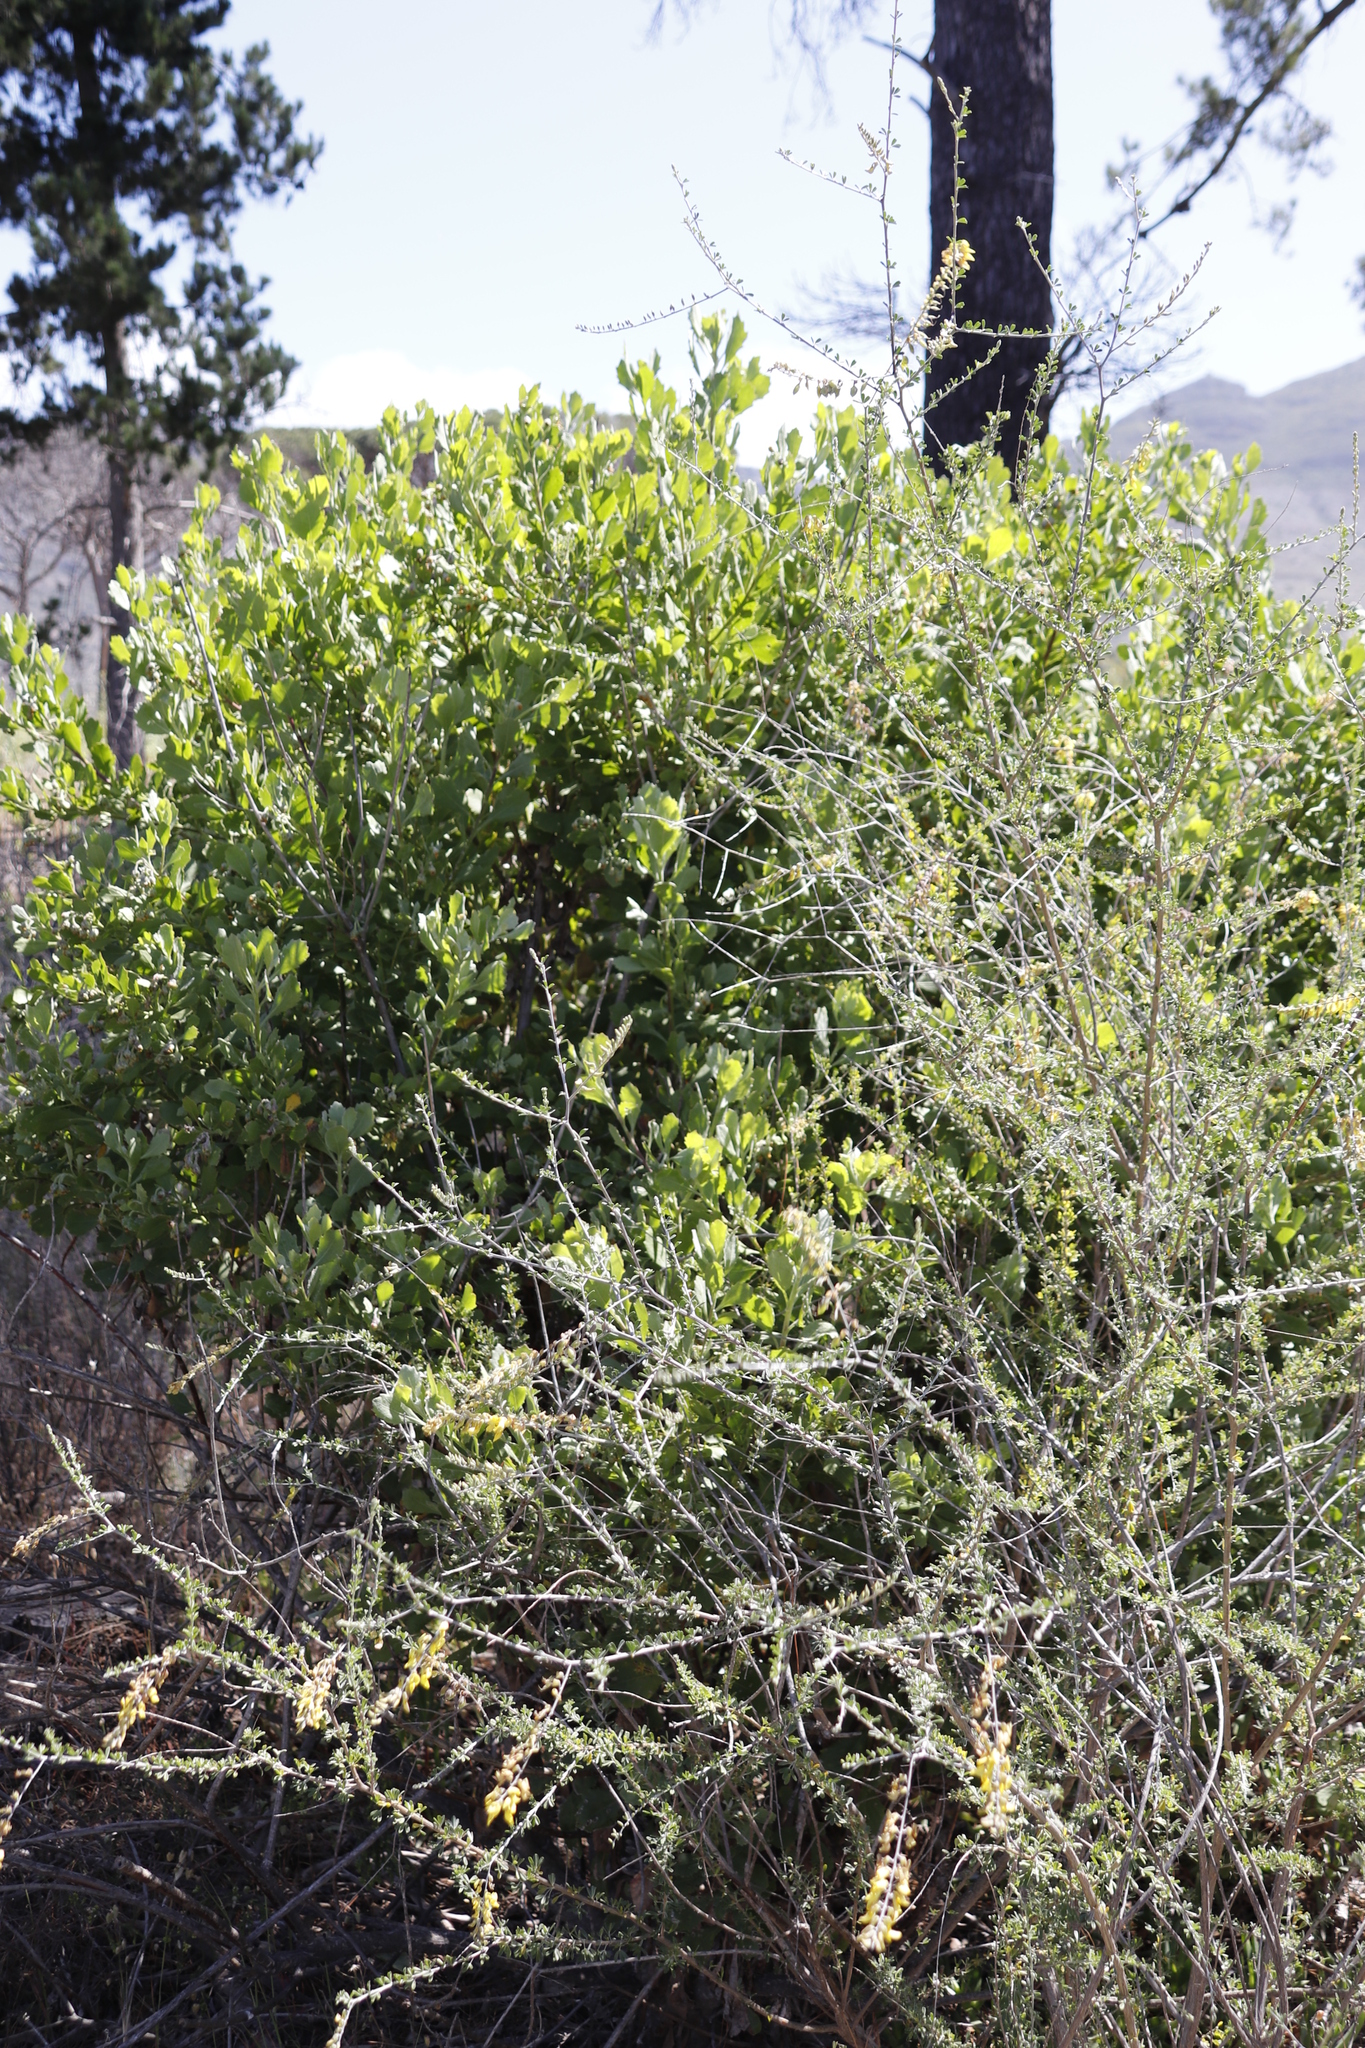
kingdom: Plantae
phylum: Tracheophyta
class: Magnoliopsida
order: Asterales
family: Asteraceae
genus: Osteospermum
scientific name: Osteospermum moniliferum
